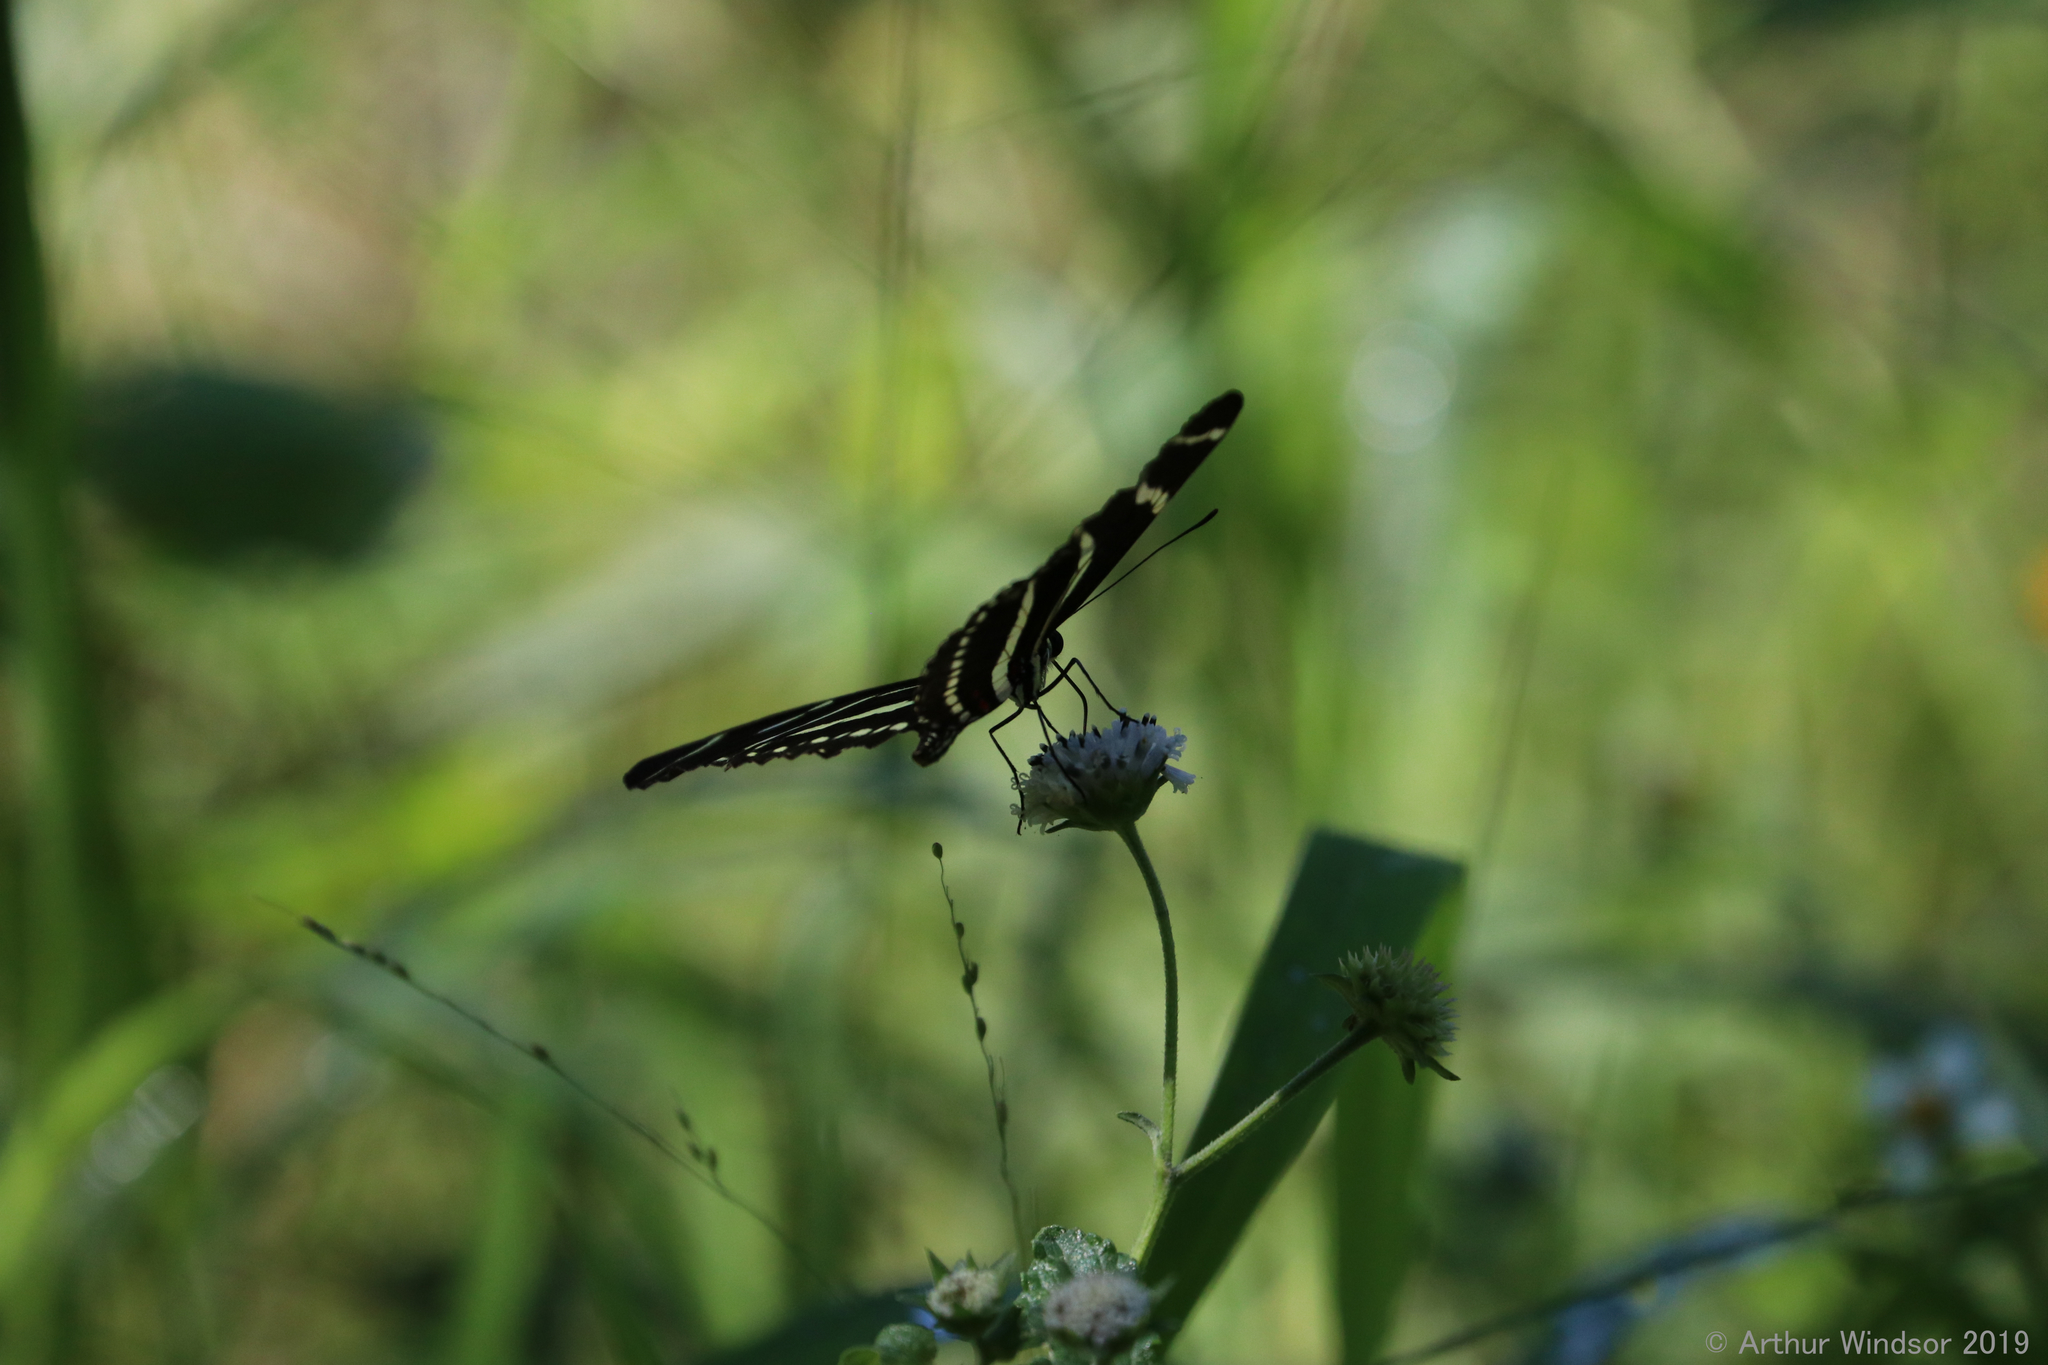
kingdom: Animalia
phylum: Arthropoda
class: Insecta
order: Lepidoptera
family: Nymphalidae
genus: Heliconius
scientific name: Heliconius charithonia
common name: Zebra long wing
